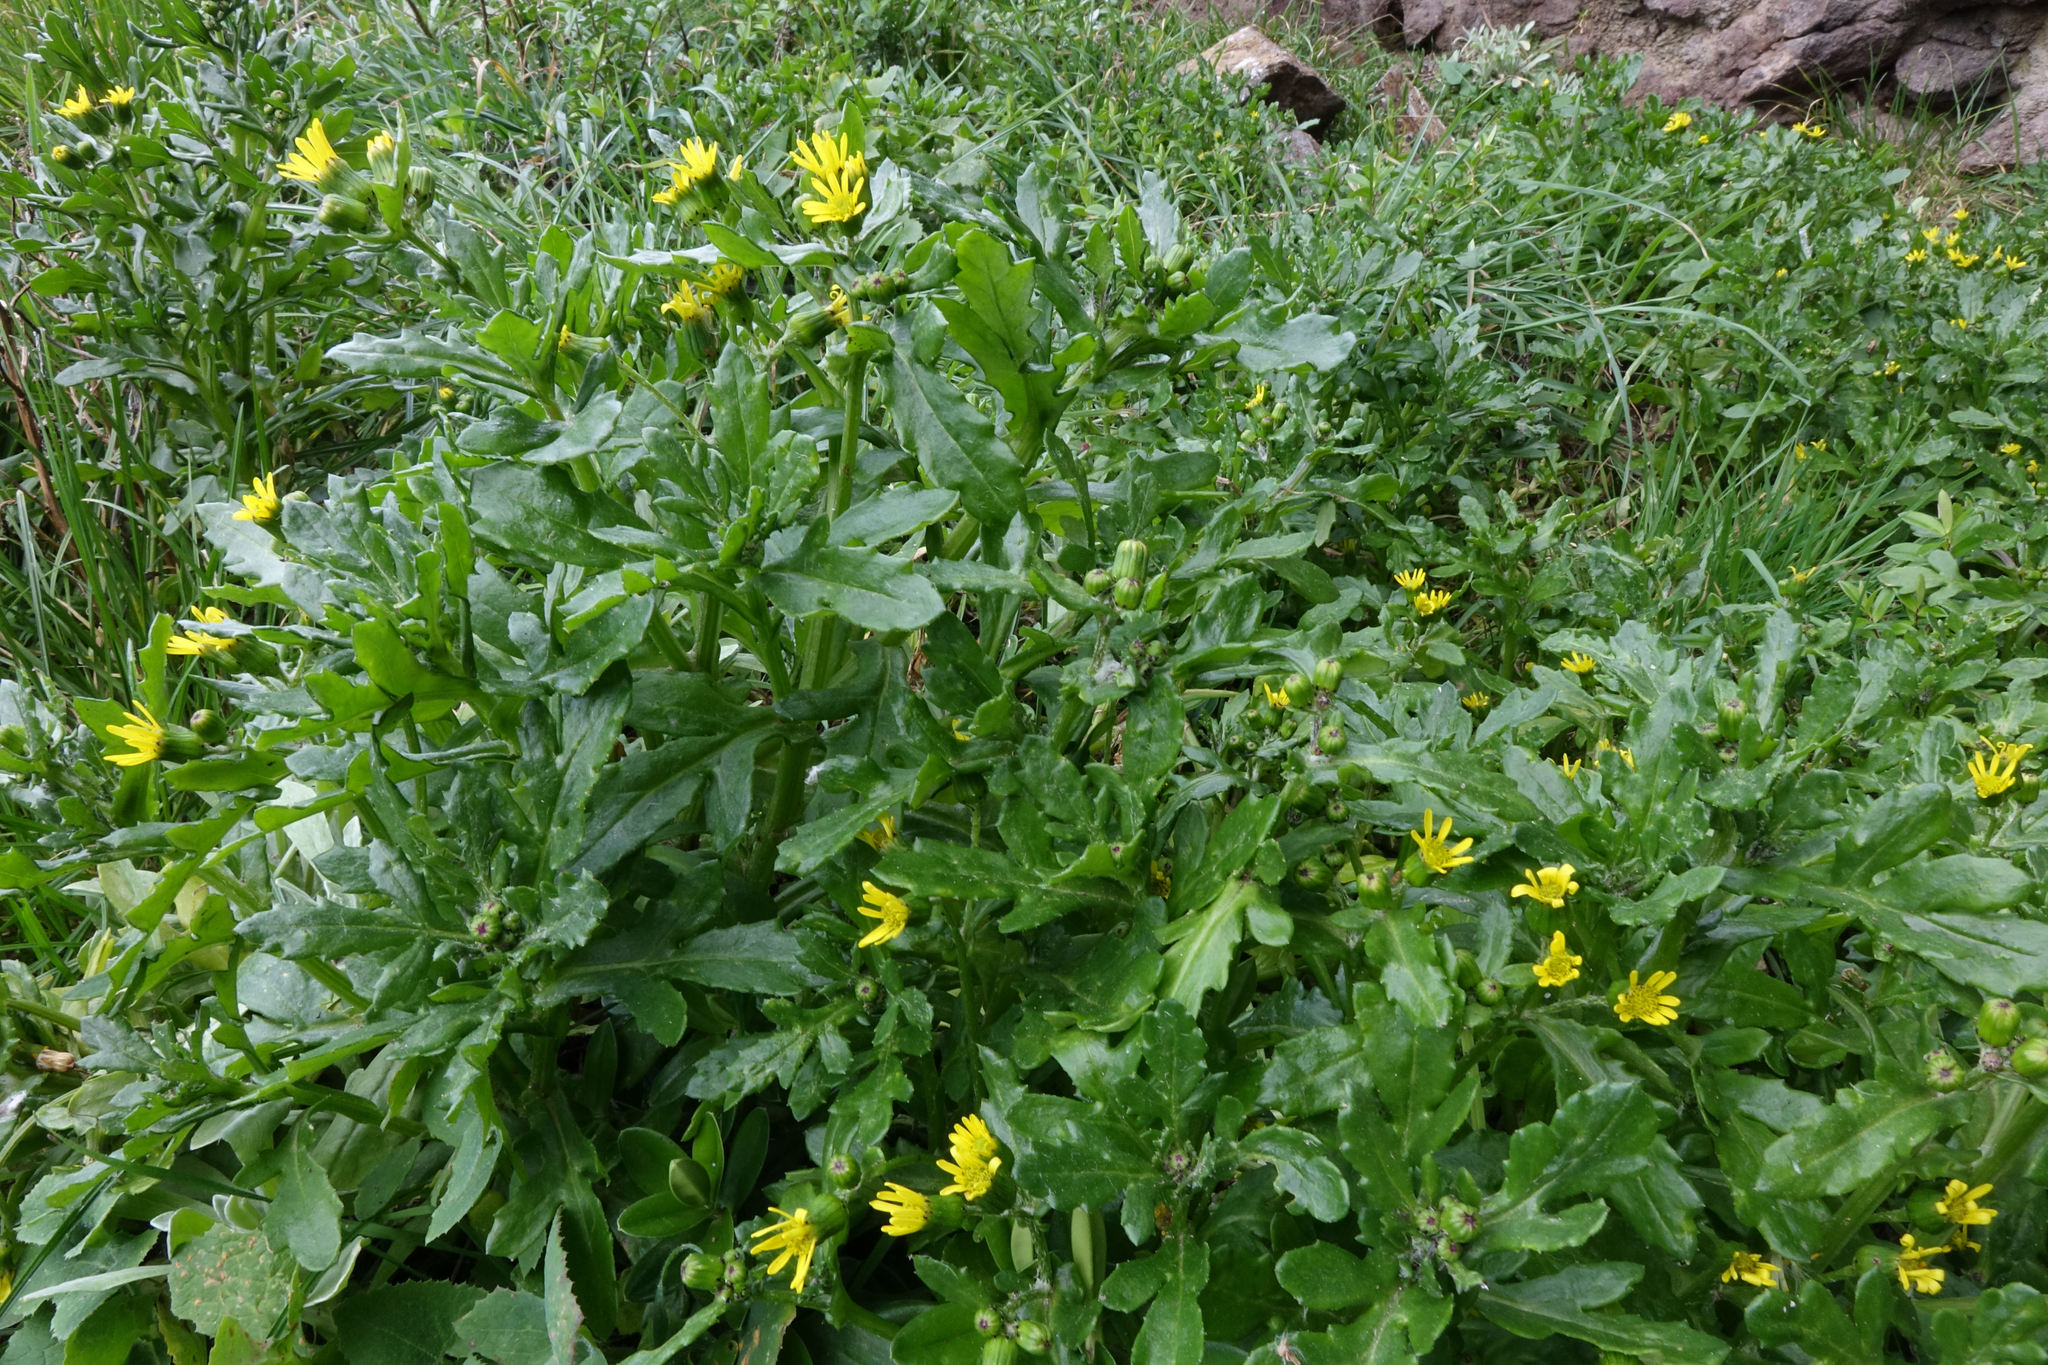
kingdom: Plantae
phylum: Tracheophyta
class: Magnoliopsida
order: Asterales
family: Asteraceae
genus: Senecio
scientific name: Senecio carnosulus
